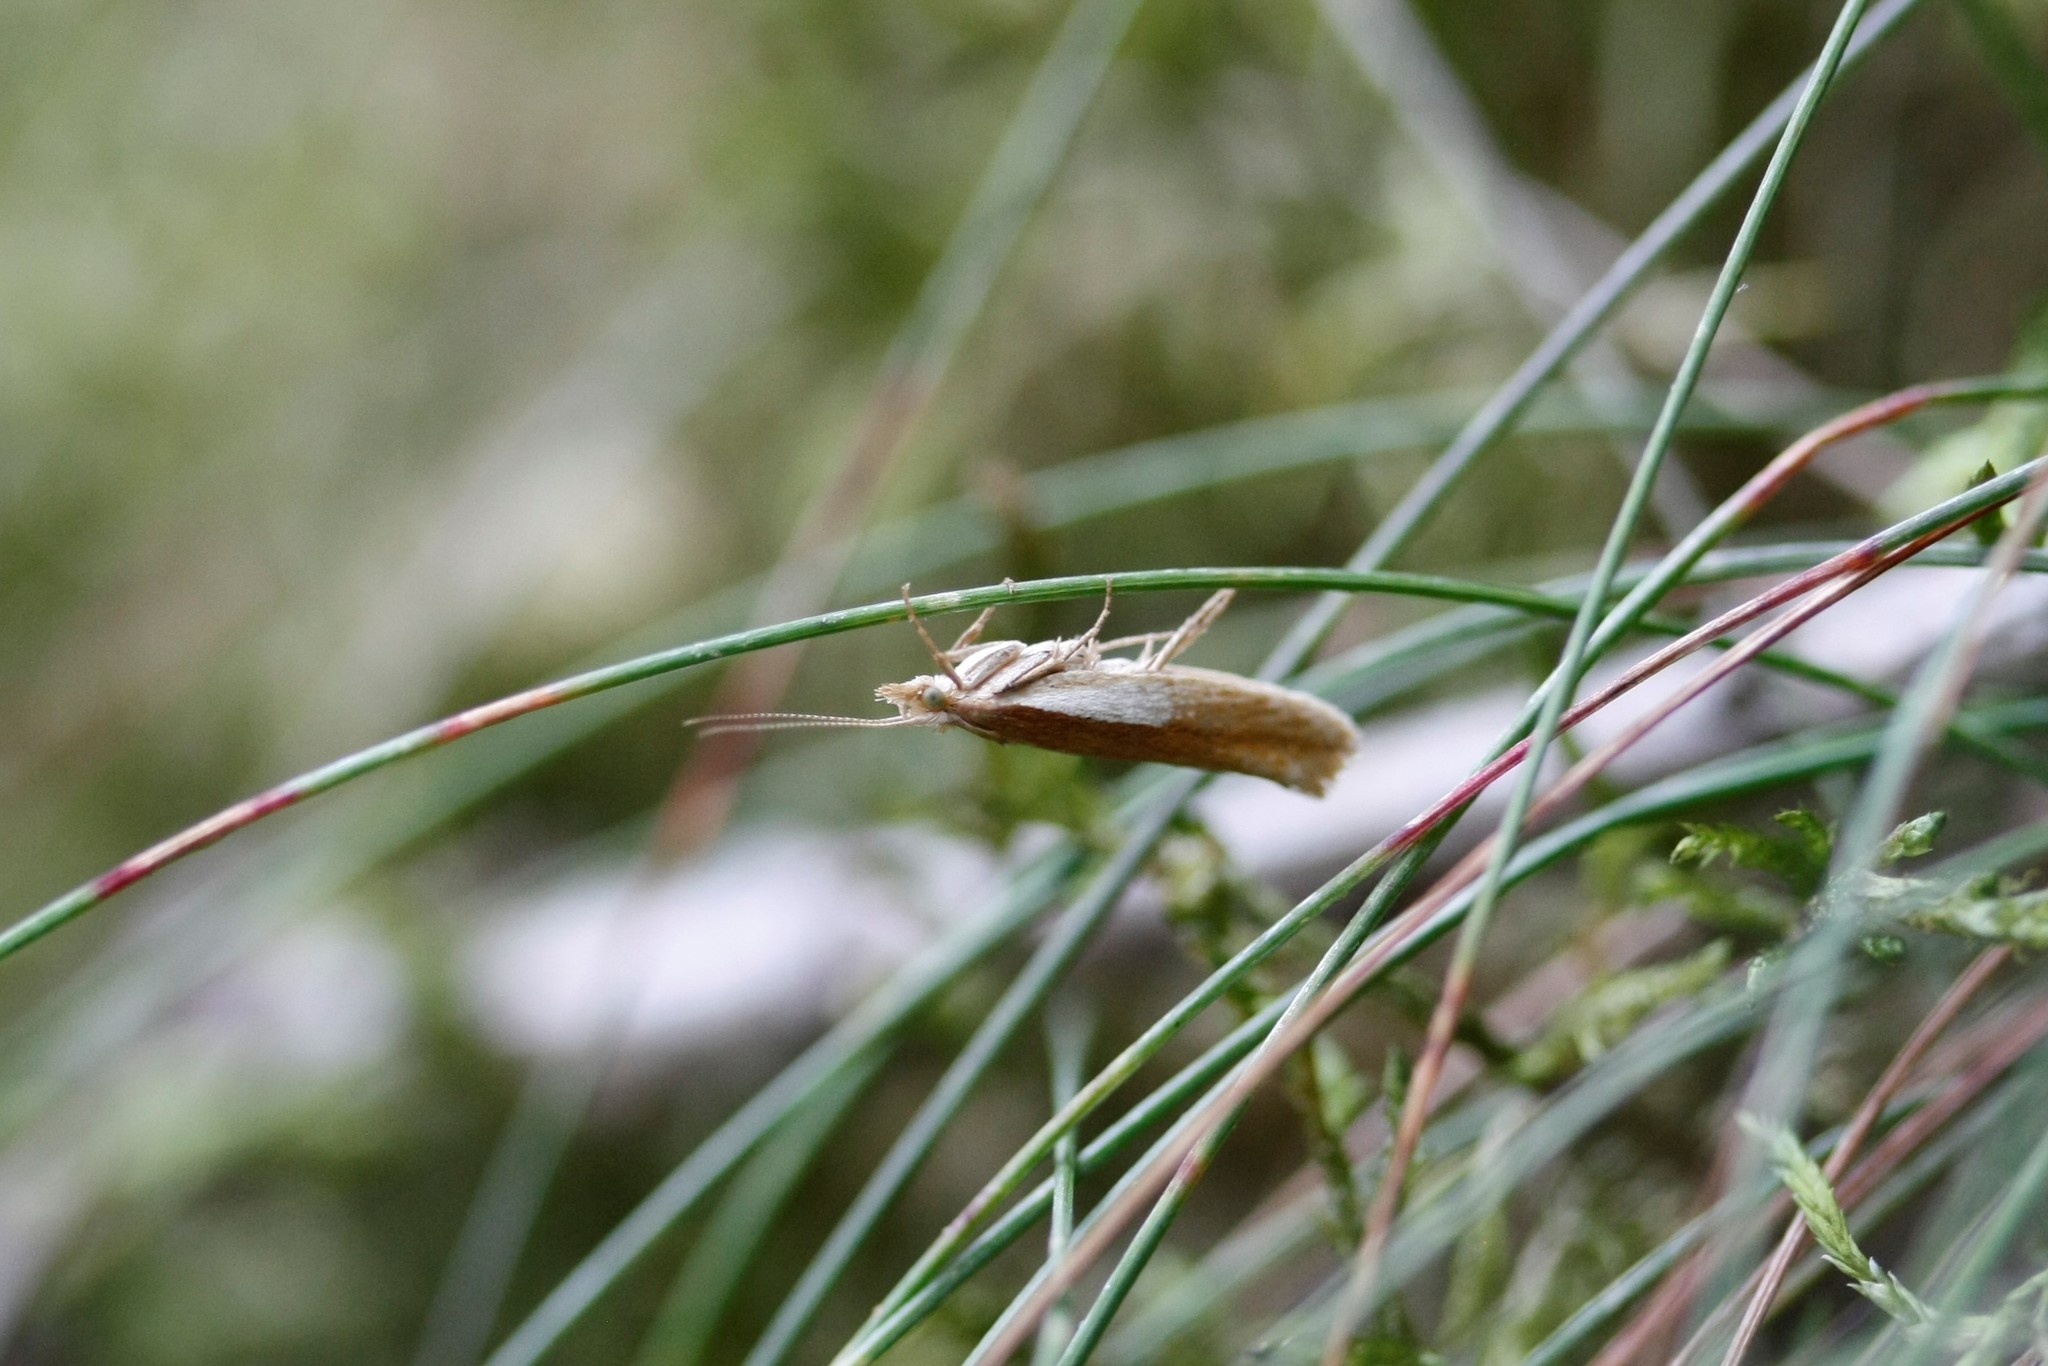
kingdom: Animalia
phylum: Arthropoda
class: Insecta
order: Lepidoptera
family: Ypsolophidae
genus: Ypsolopha
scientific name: Ypsolopha parenthesella
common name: White-shouldered smudge
